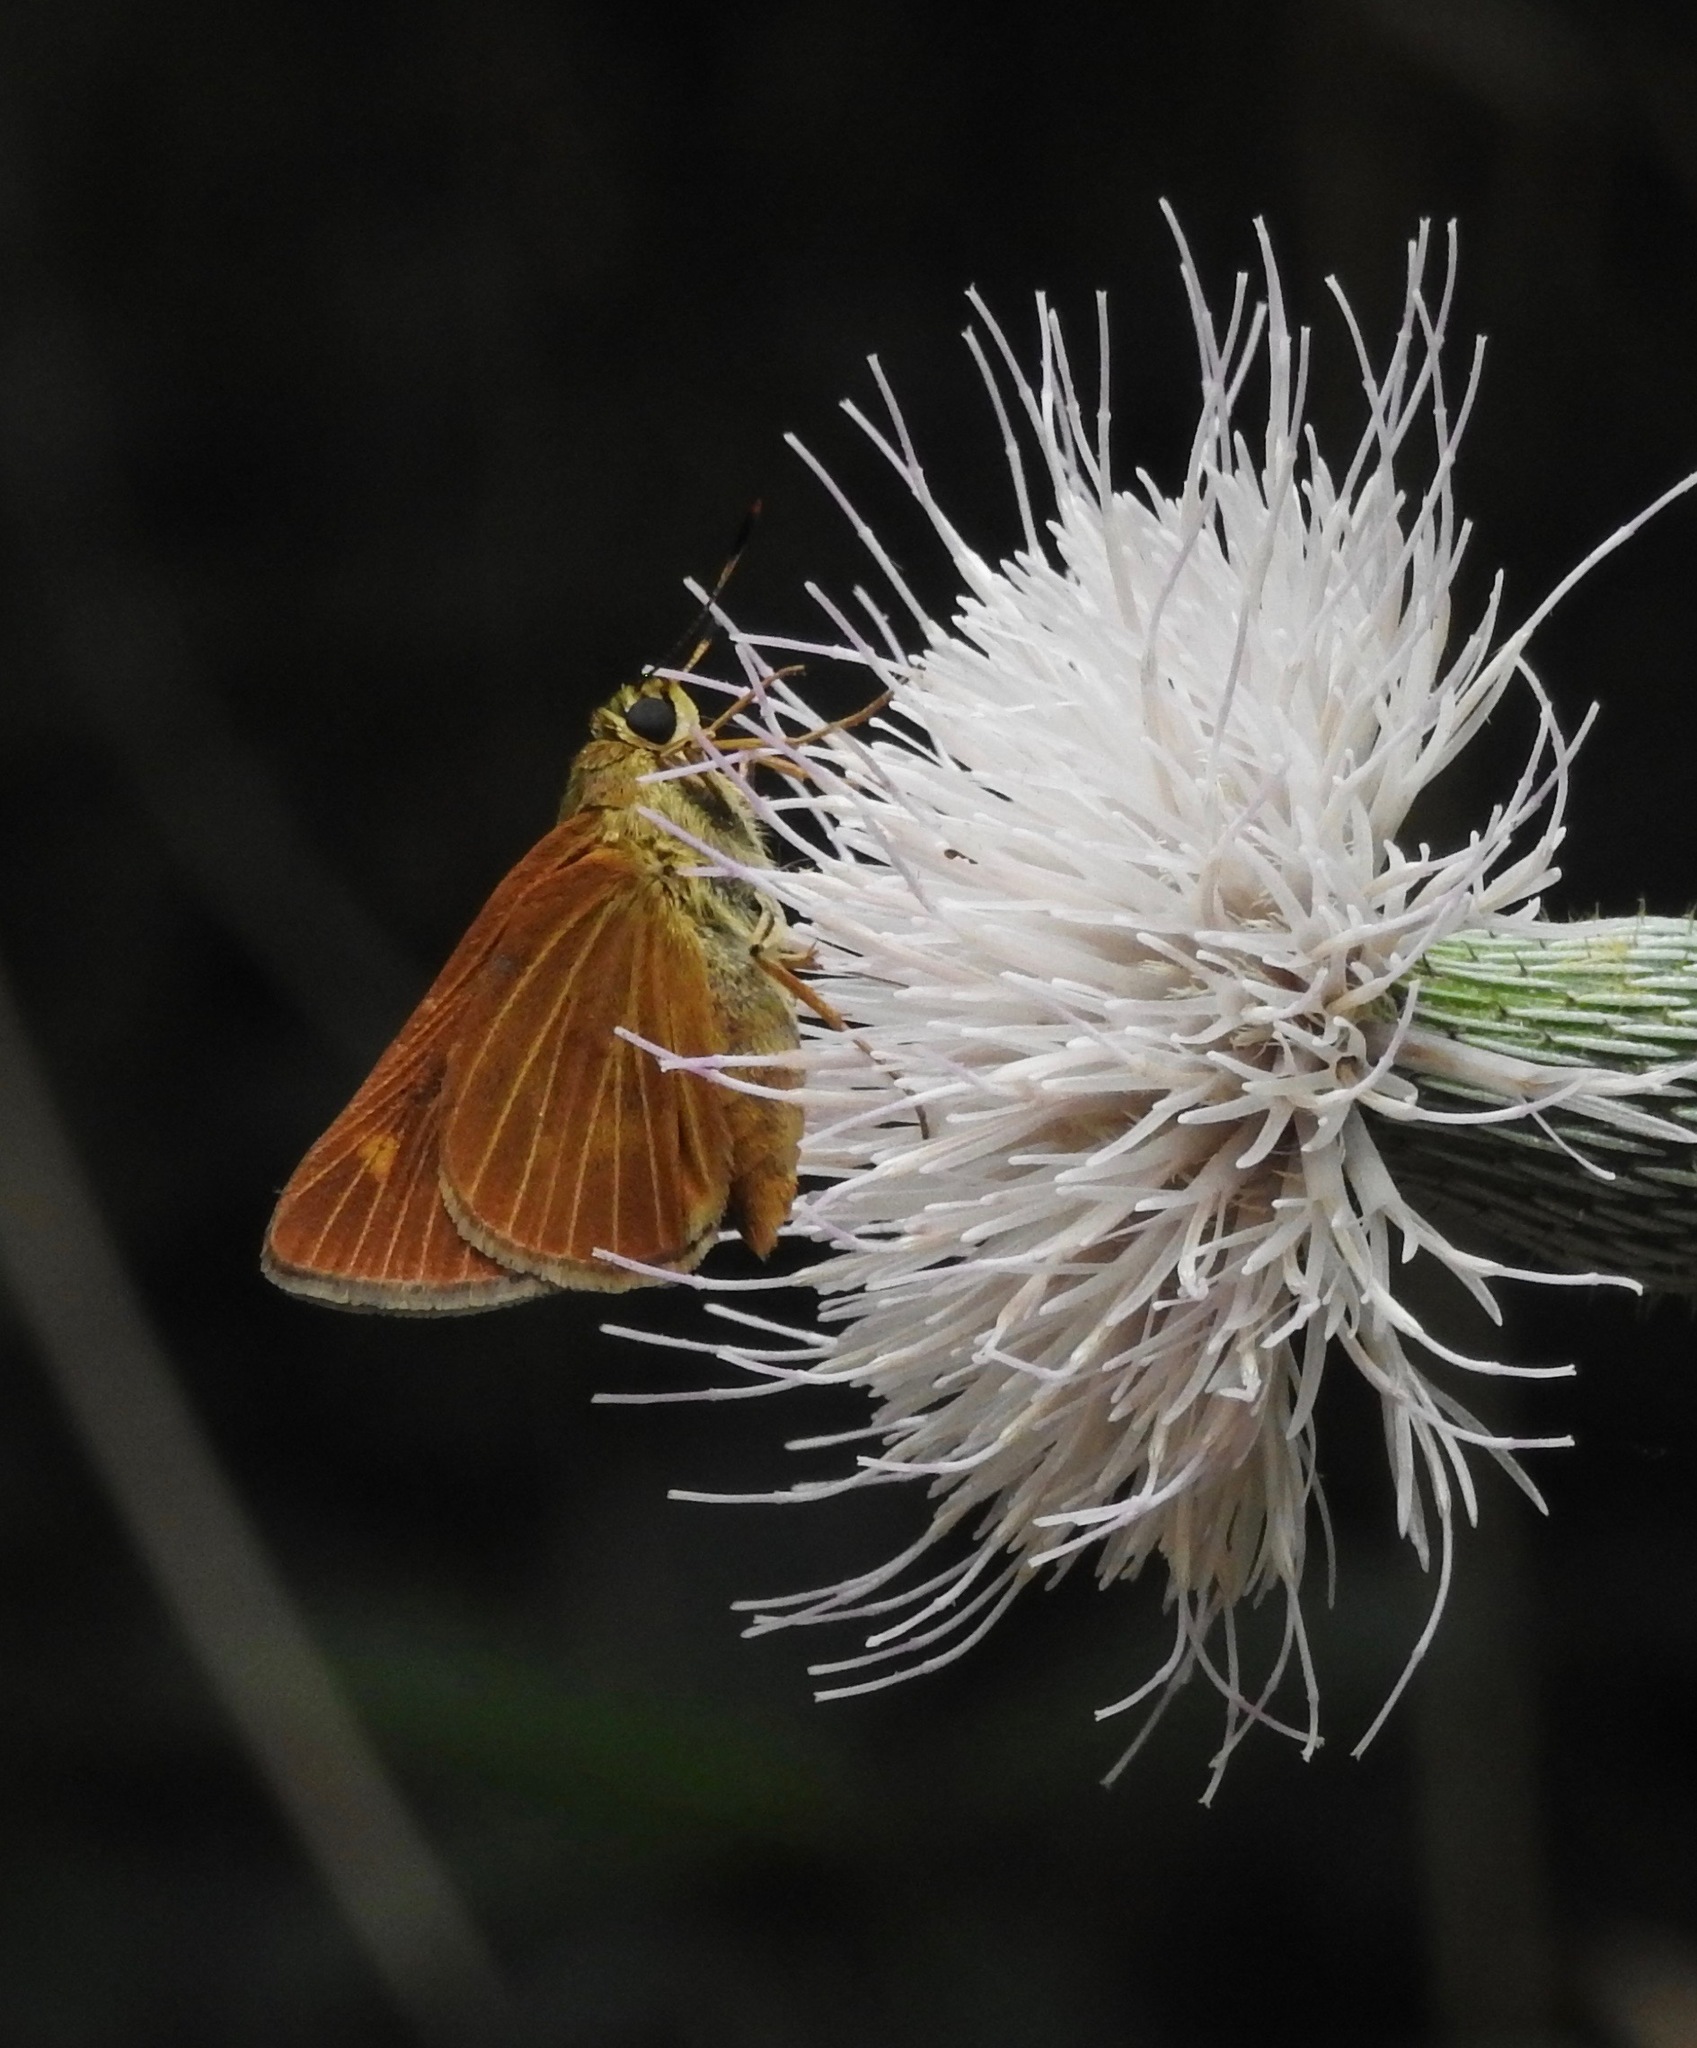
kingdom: Animalia
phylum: Arthropoda
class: Insecta
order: Lepidoptera
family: Hesperiidae
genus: Problema
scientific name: Problema byssus
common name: Byssus skipper
